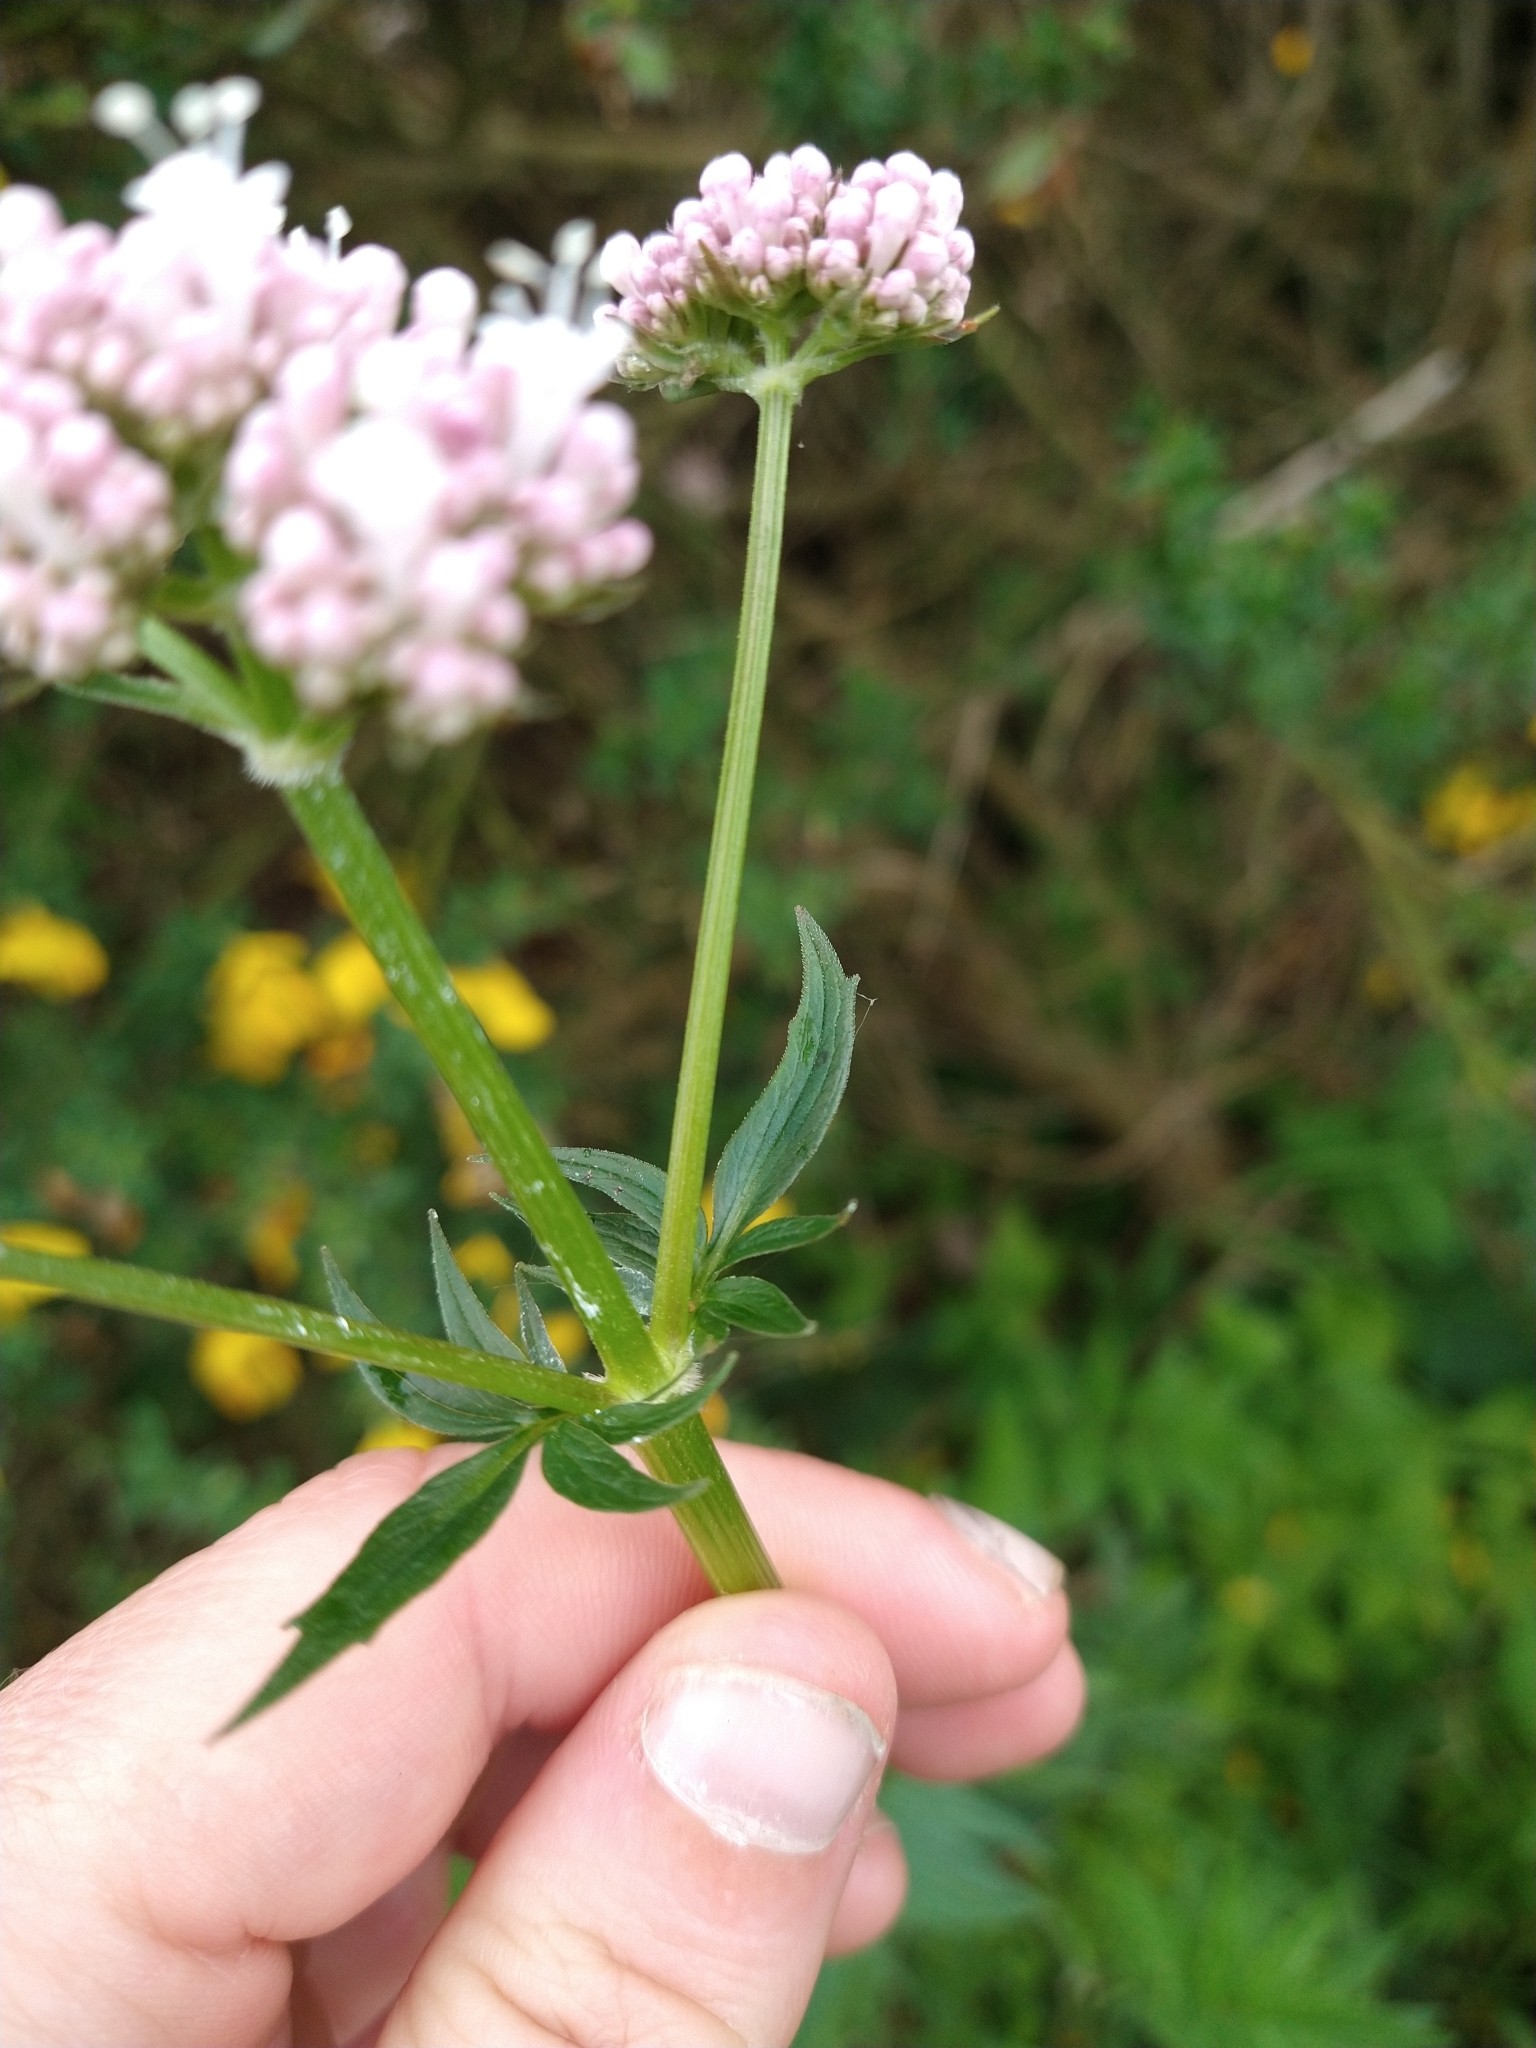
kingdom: Plantae
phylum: Tracheophyta
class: Magnoliopsida
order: Dipsacales
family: Caprifoliaceae
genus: Valeriana
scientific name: Valeriana officinalis
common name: Common valerian
